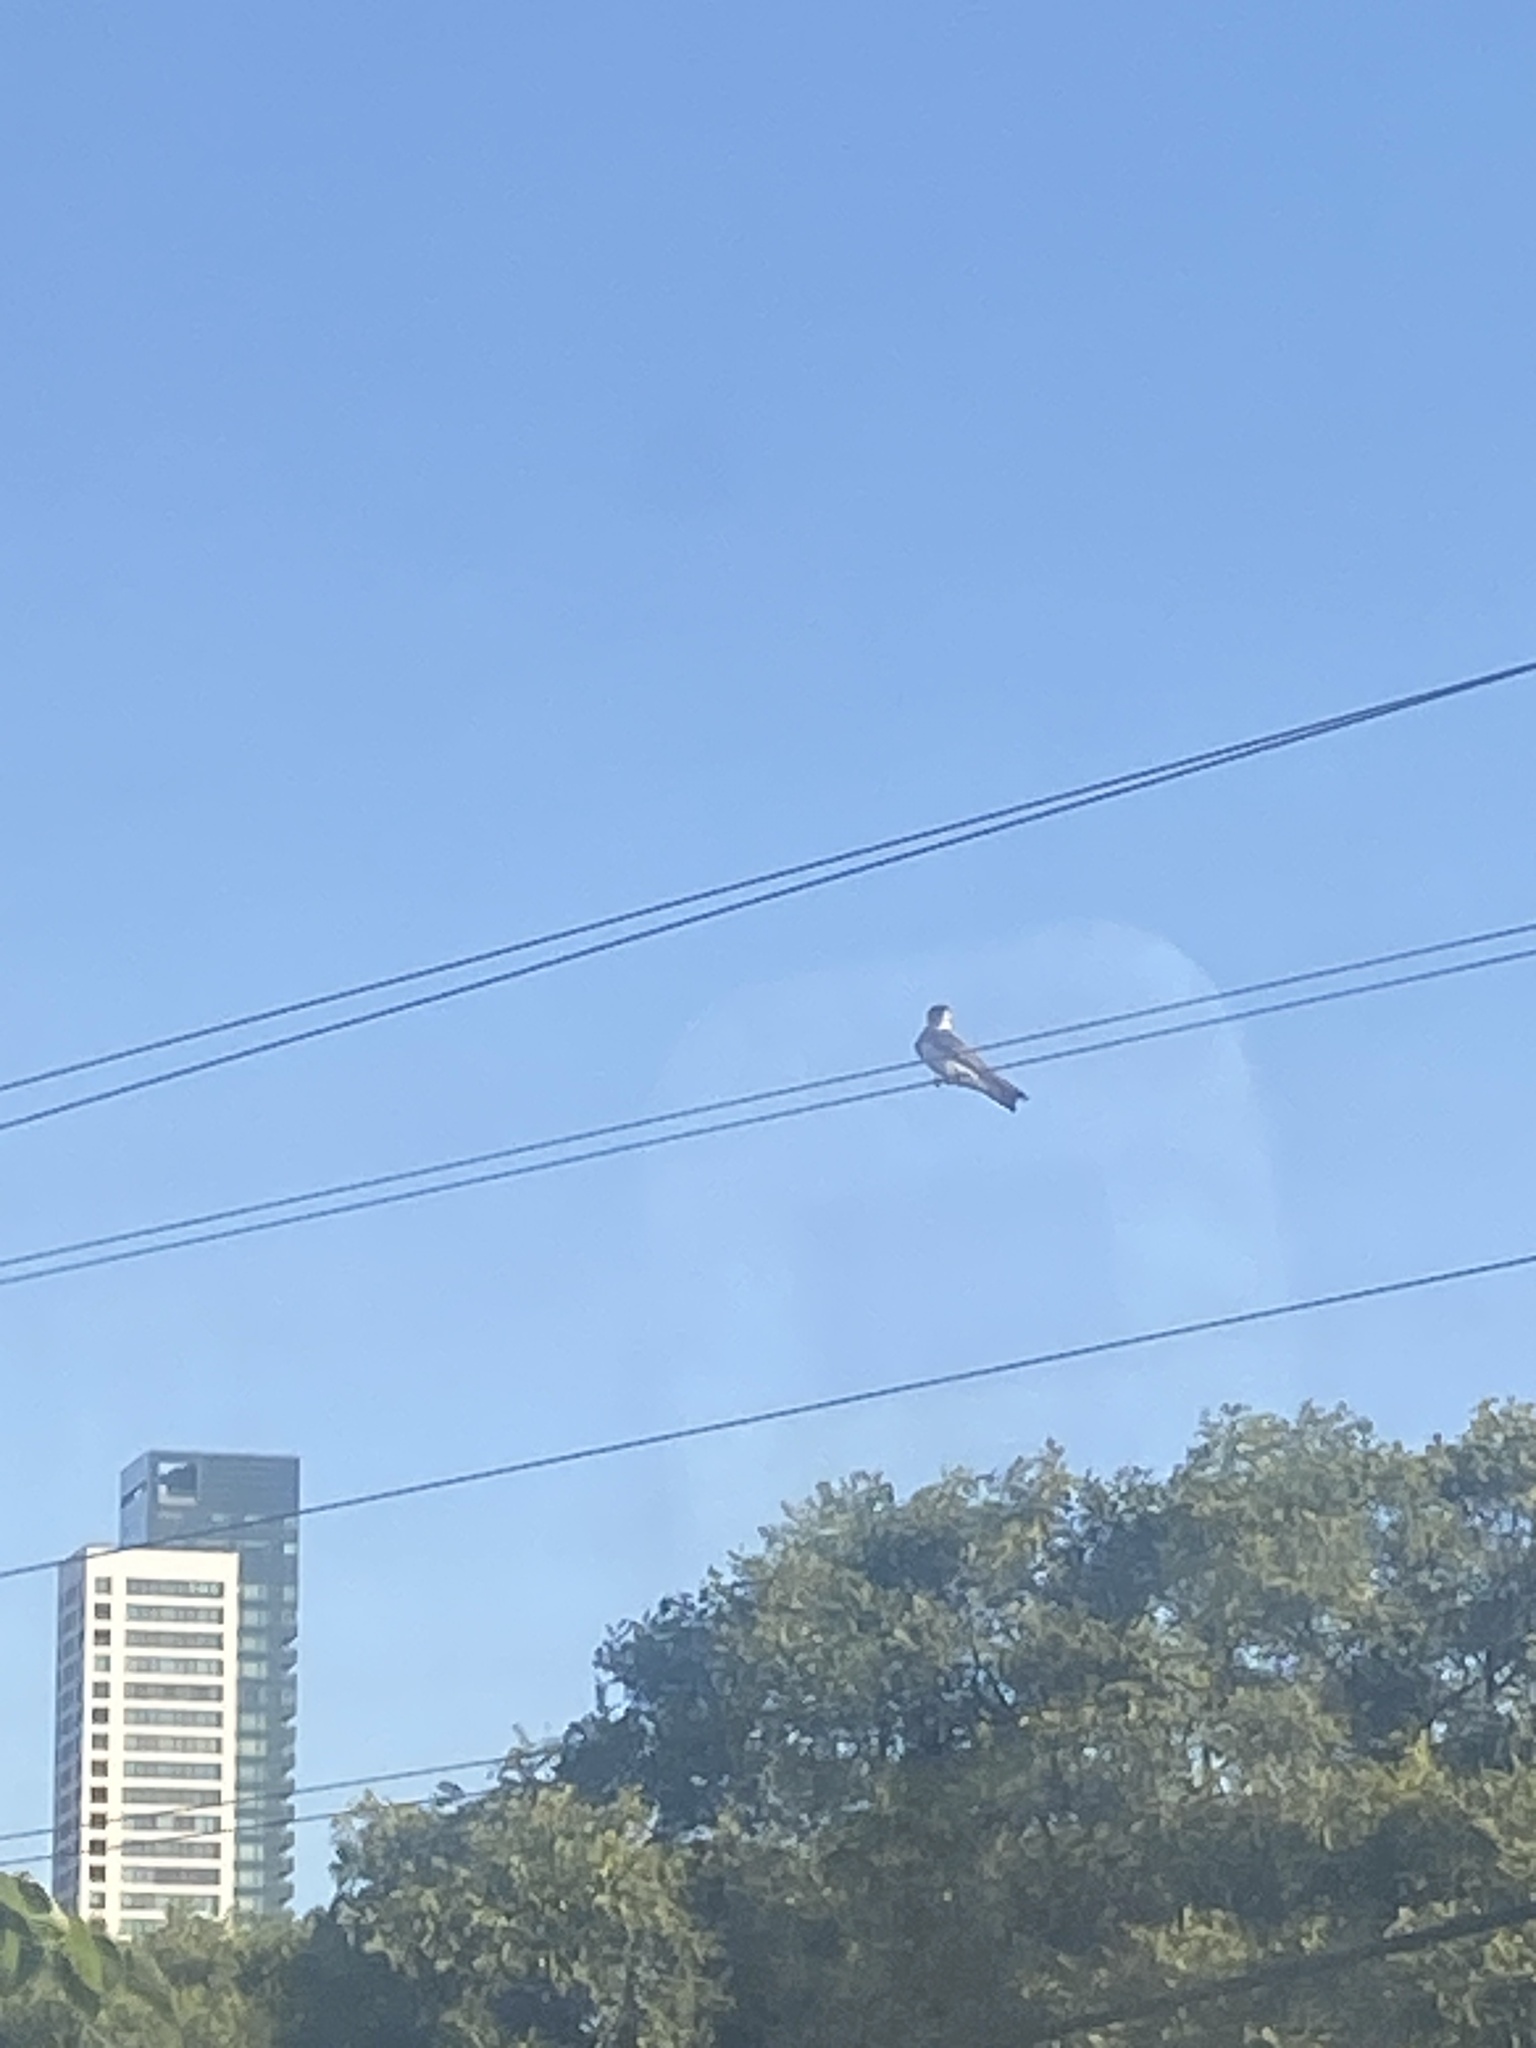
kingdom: Animalia
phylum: Chordata
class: Aves
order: Passeriformes
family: Hirundinidae
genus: Progne
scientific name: Progne tapera
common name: Brown-chested martin
